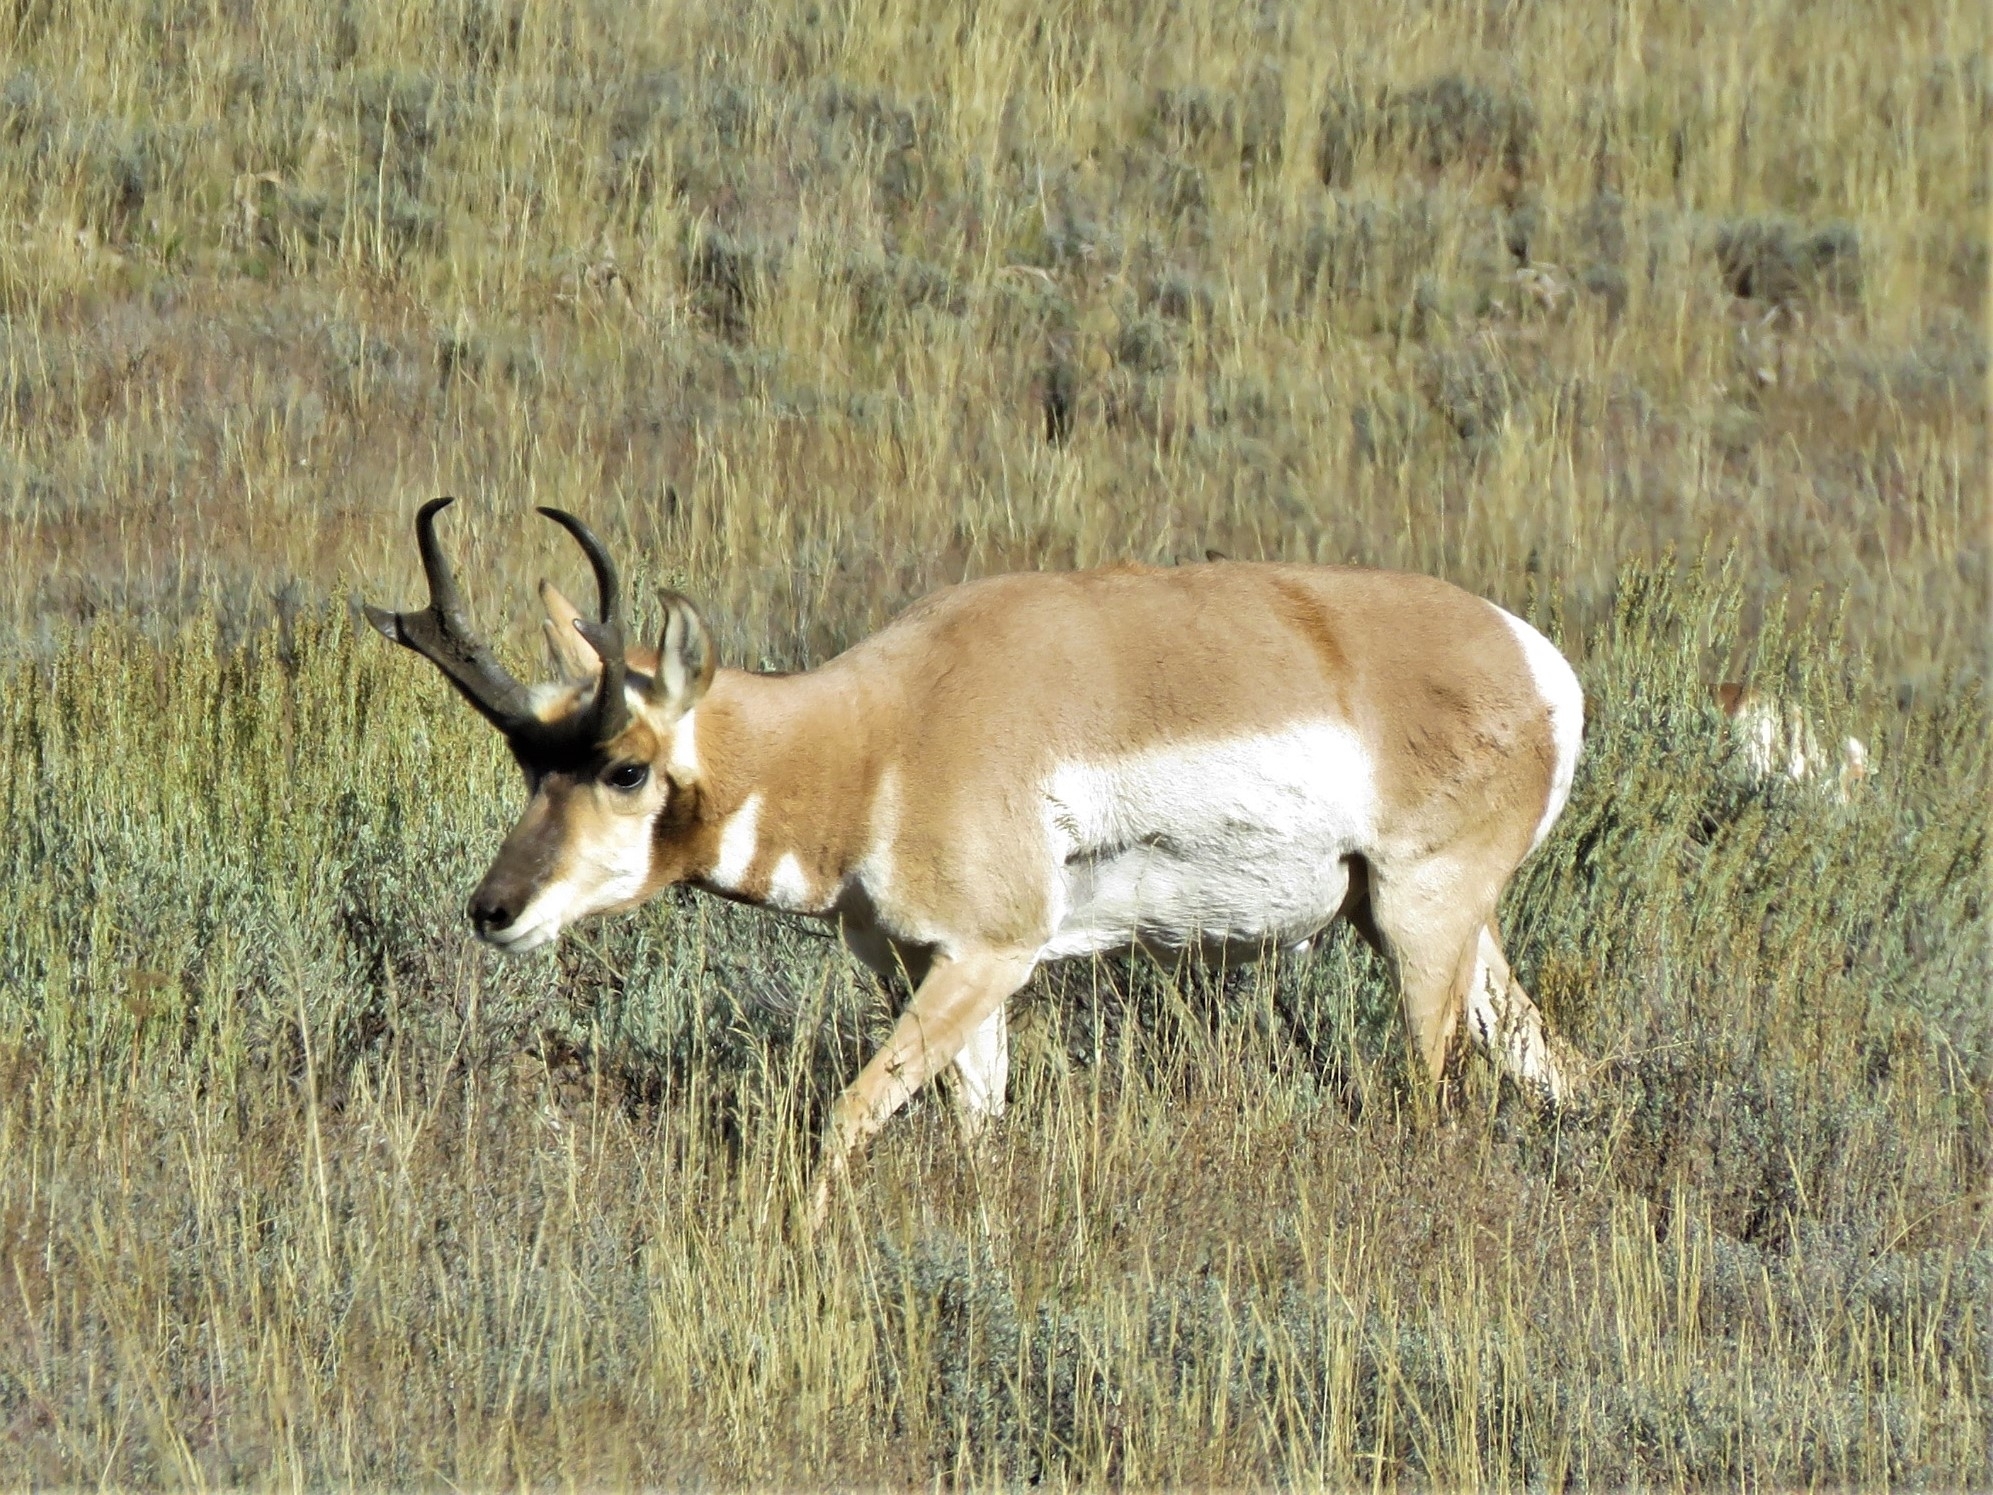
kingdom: Animalia
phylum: Chordata
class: Mammalia
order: Artiodactyla
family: Antilocapridae
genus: Antilocapra
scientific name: Antilocapra americana
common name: Pronghorn
